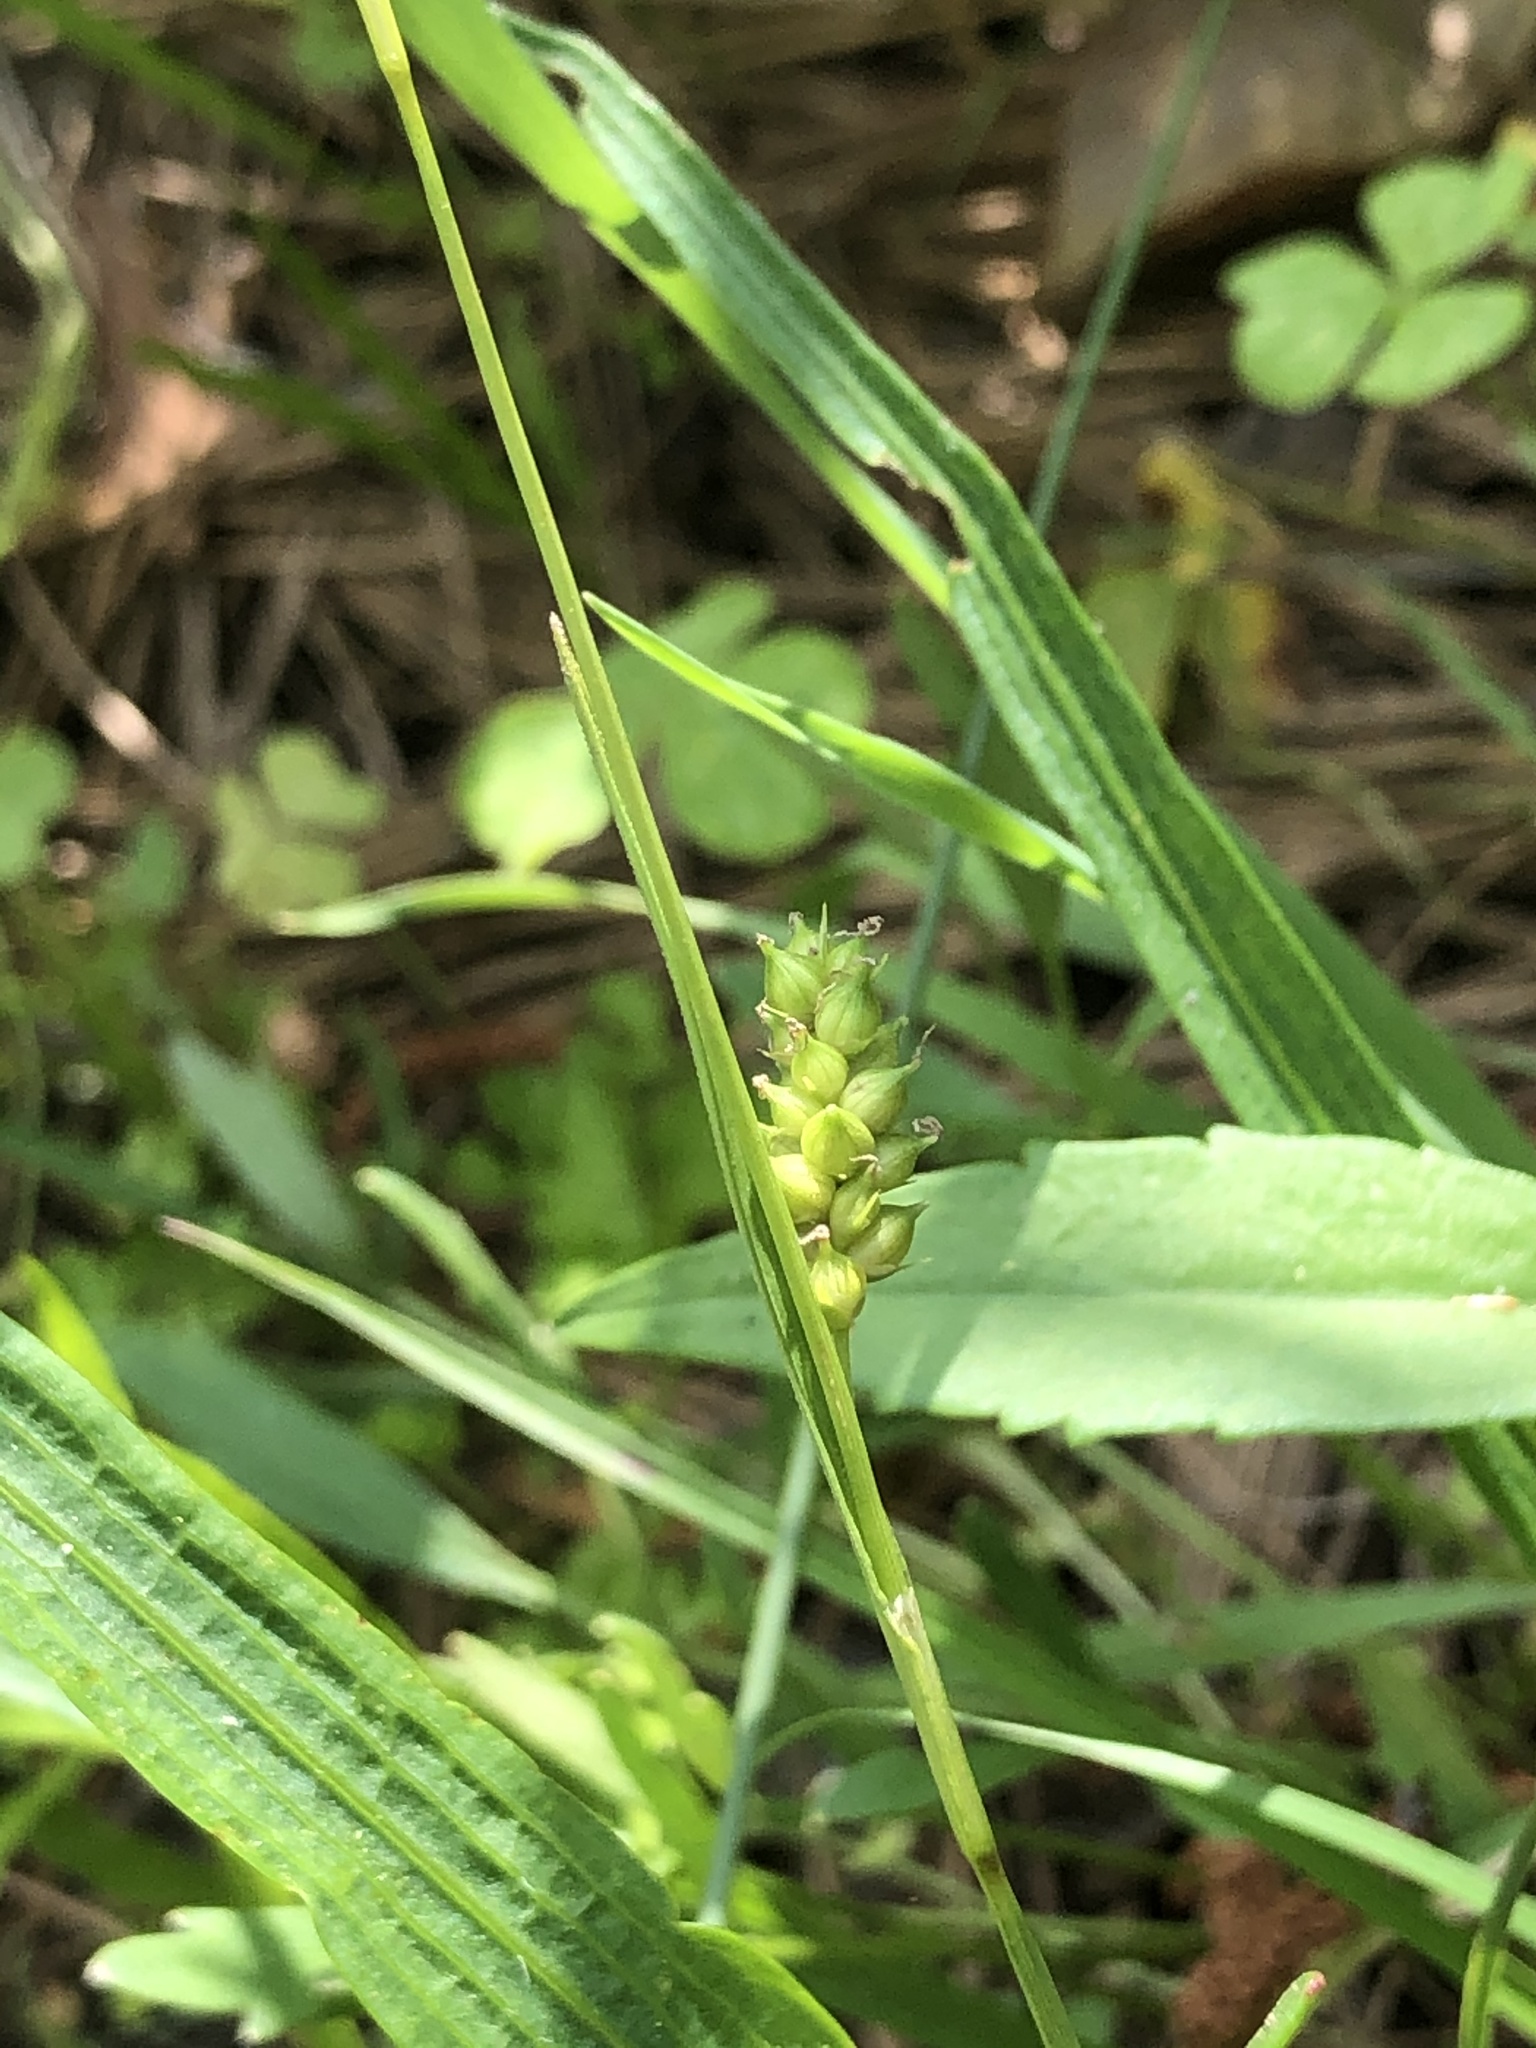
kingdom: Plantae
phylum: Tracheophyta
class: Liliopsida
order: Poales
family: Cyperaceae
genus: Carex
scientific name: Carex microdonta
